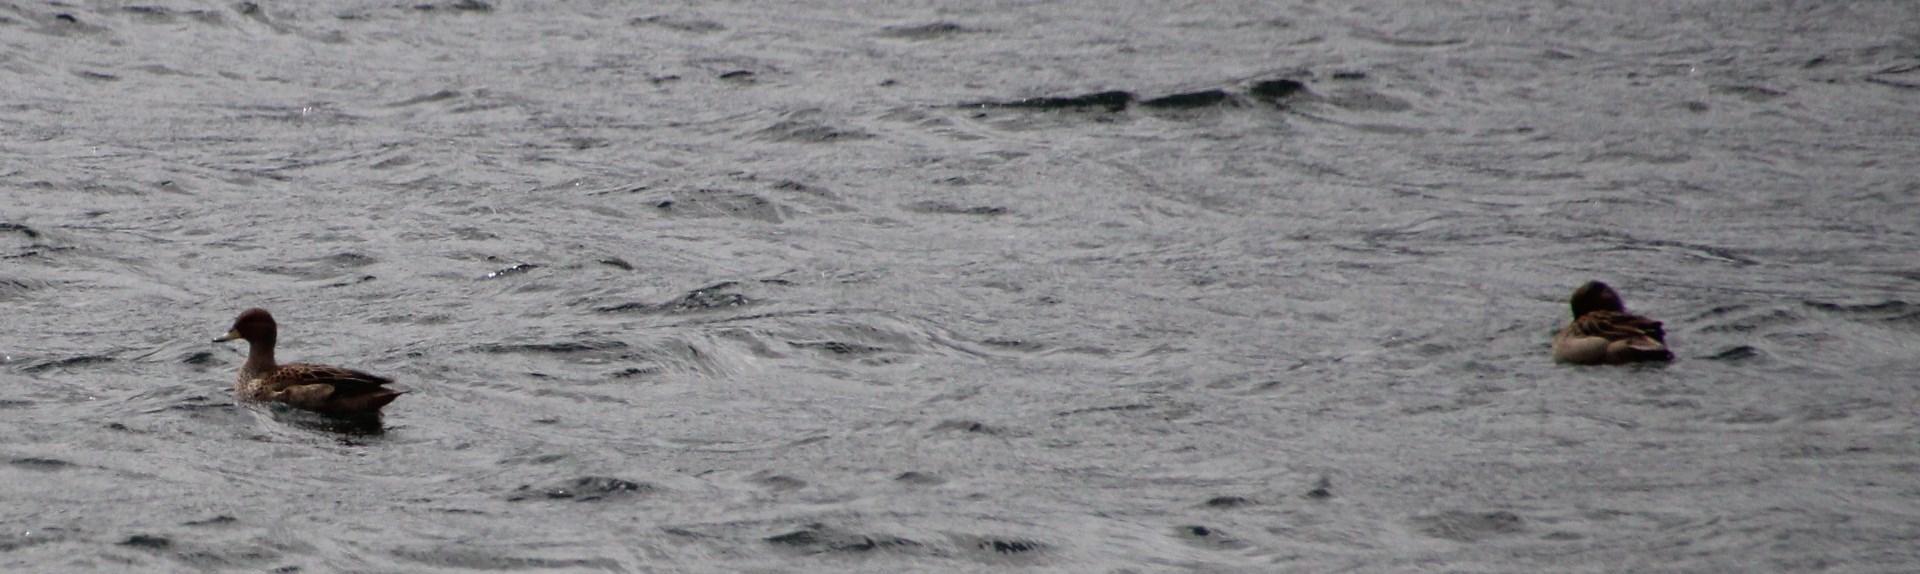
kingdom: Animalia
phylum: Chordata
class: Aves
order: Anseriformes
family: Anatidae
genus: Anas
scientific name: Anas flavirostris
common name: Yellow-billed teal
